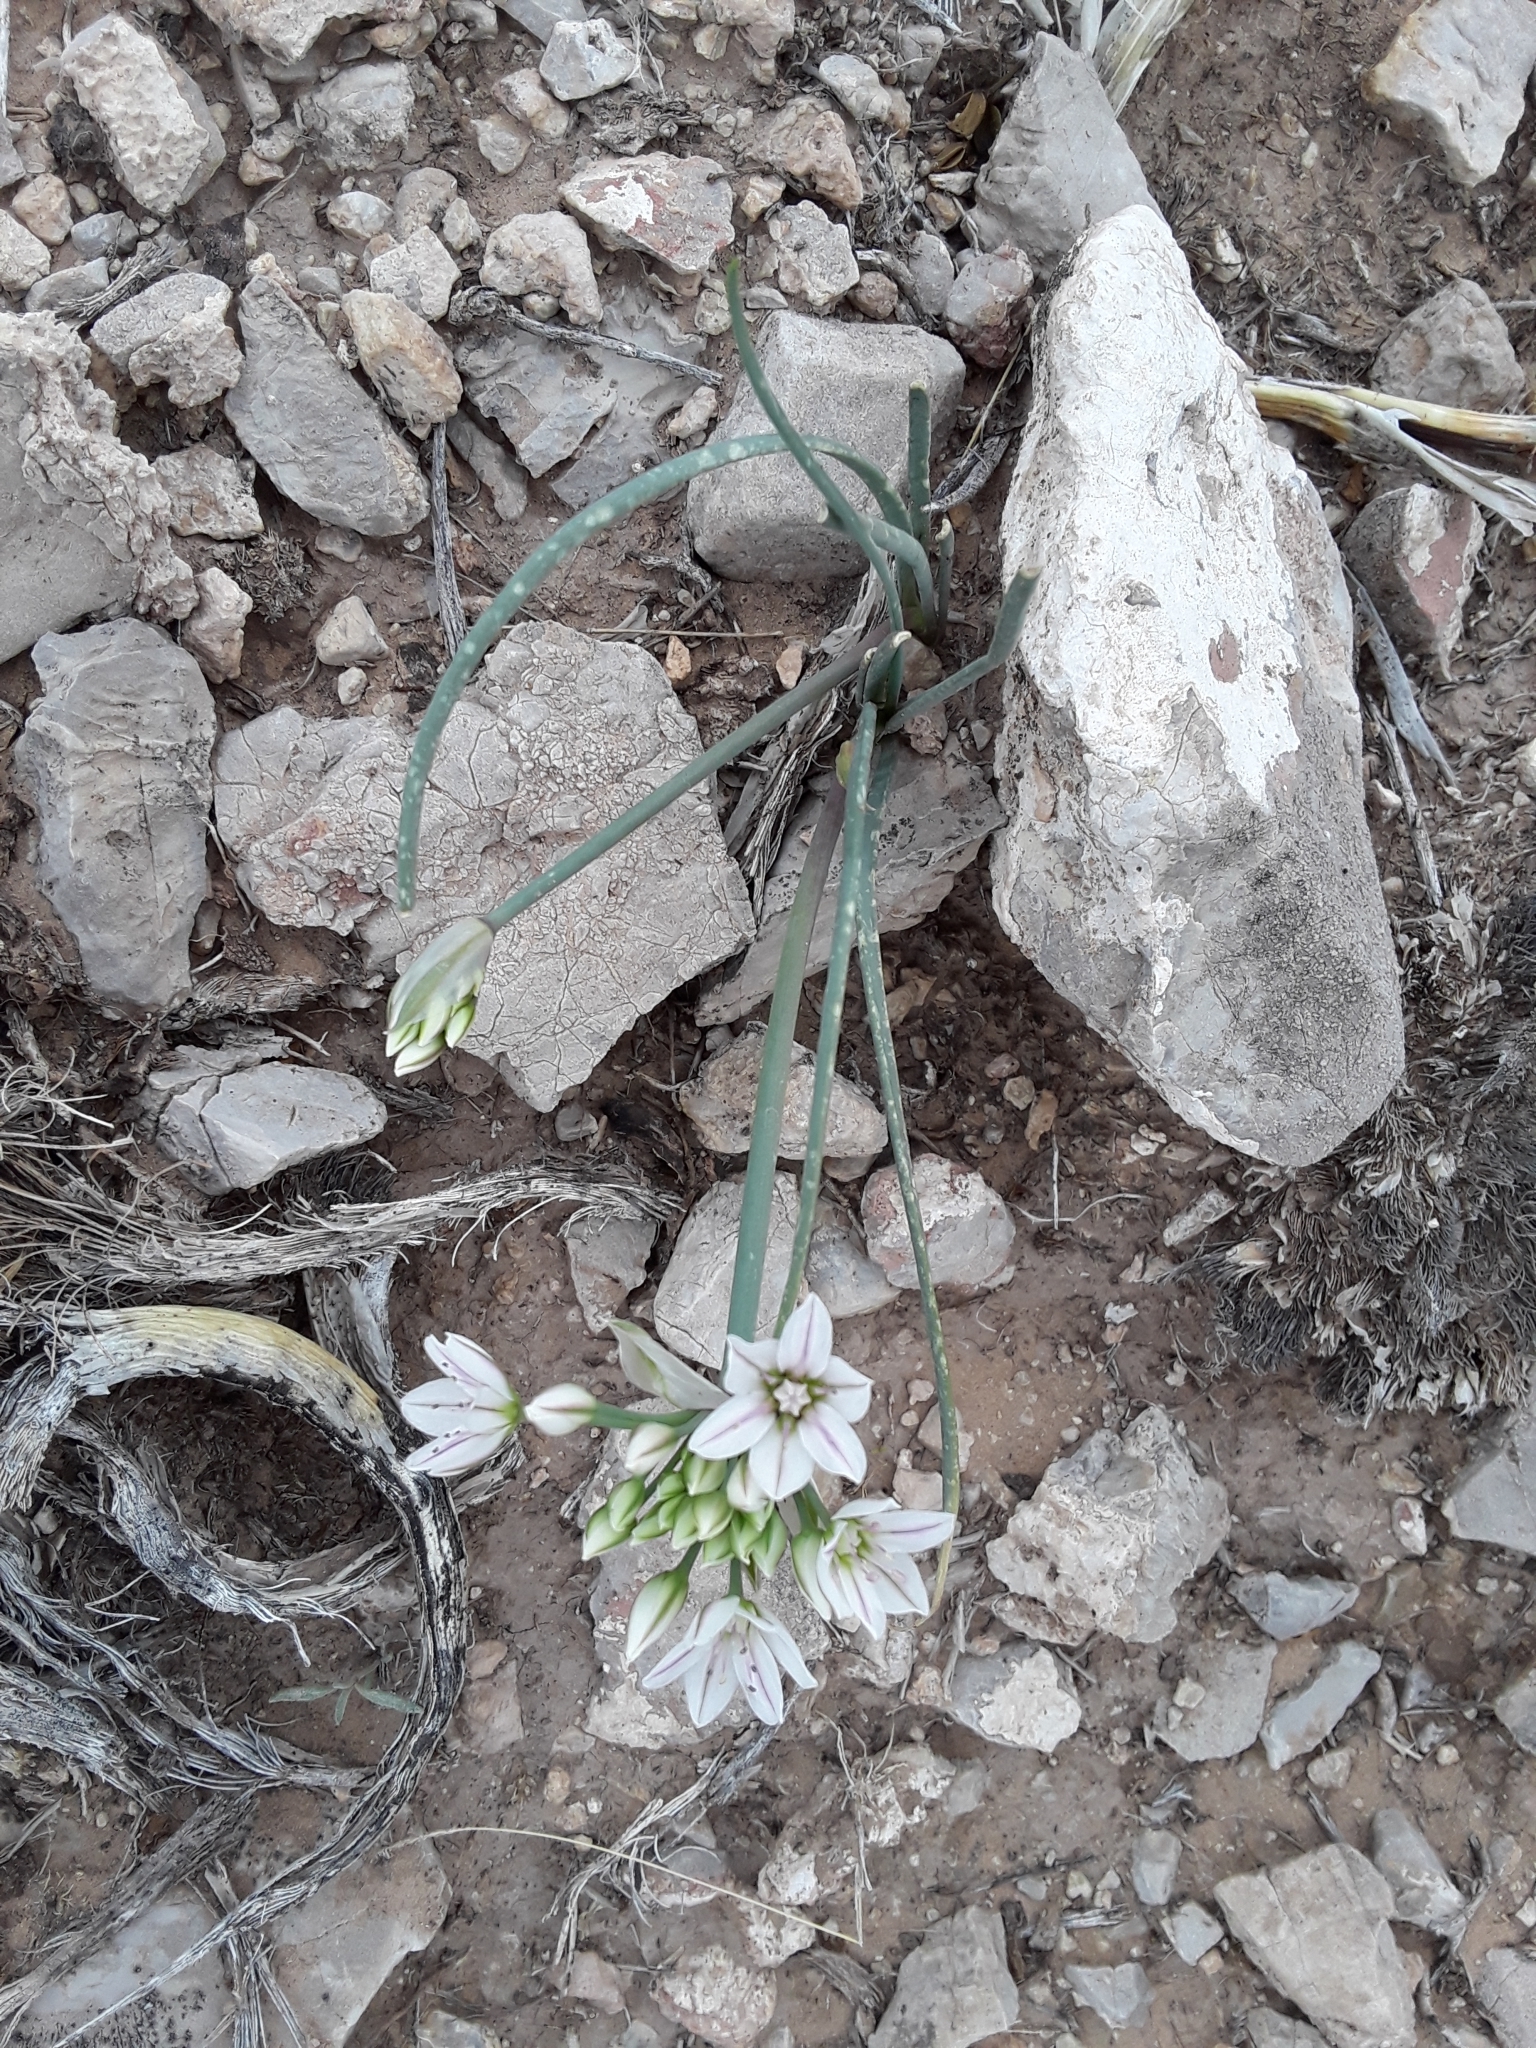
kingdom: Plantae
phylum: Tracheophyta
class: Liliopsida
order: Asparagales
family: Amaryllidaceae
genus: Allium
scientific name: Allium macropetalum
